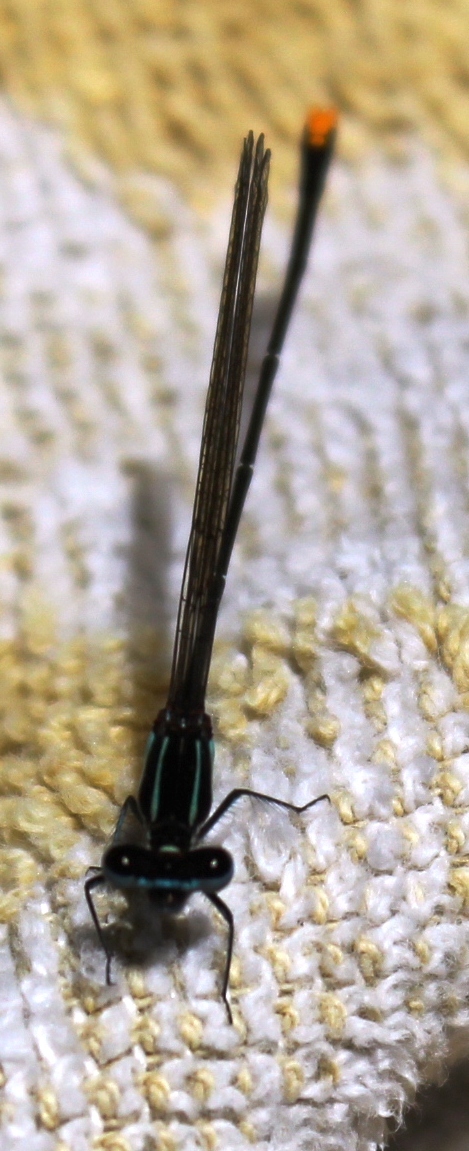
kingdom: Animalia
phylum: Arthropoda
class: Insecta
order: Odonata
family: Platycnemididae
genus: Allocnemis
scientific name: Allocnemis leucosticta
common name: Goldtail
